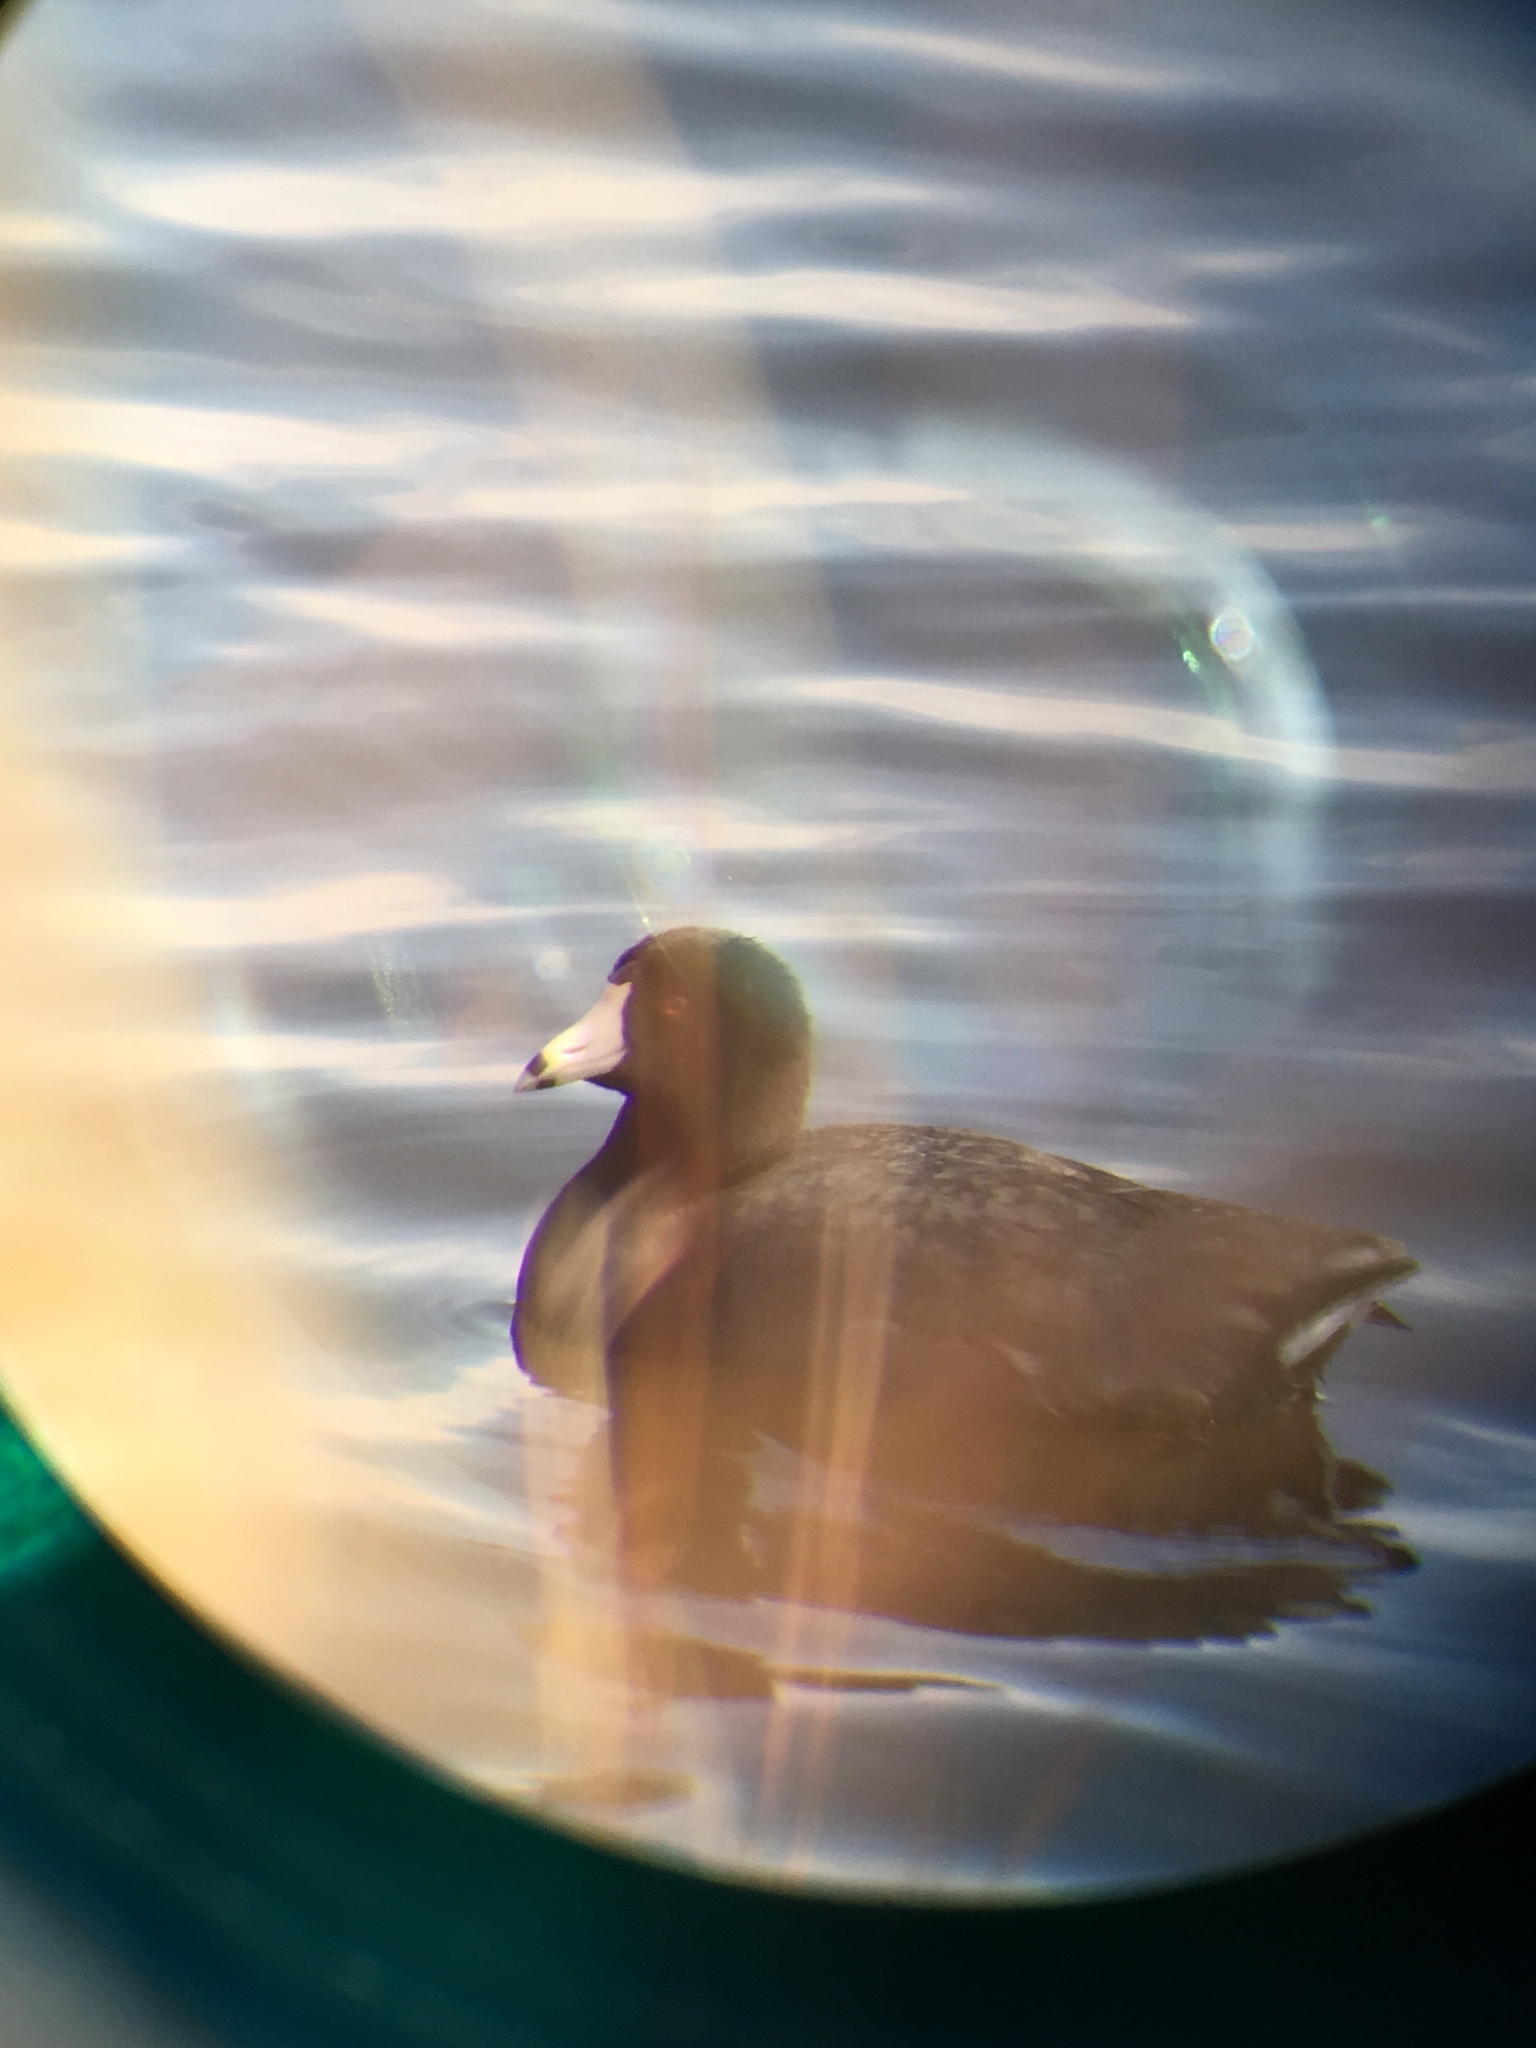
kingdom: Animalia
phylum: Chordata
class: Aves
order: Gruiformes
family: Rallidae
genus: Fulica
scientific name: Fulica americana
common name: American coot
